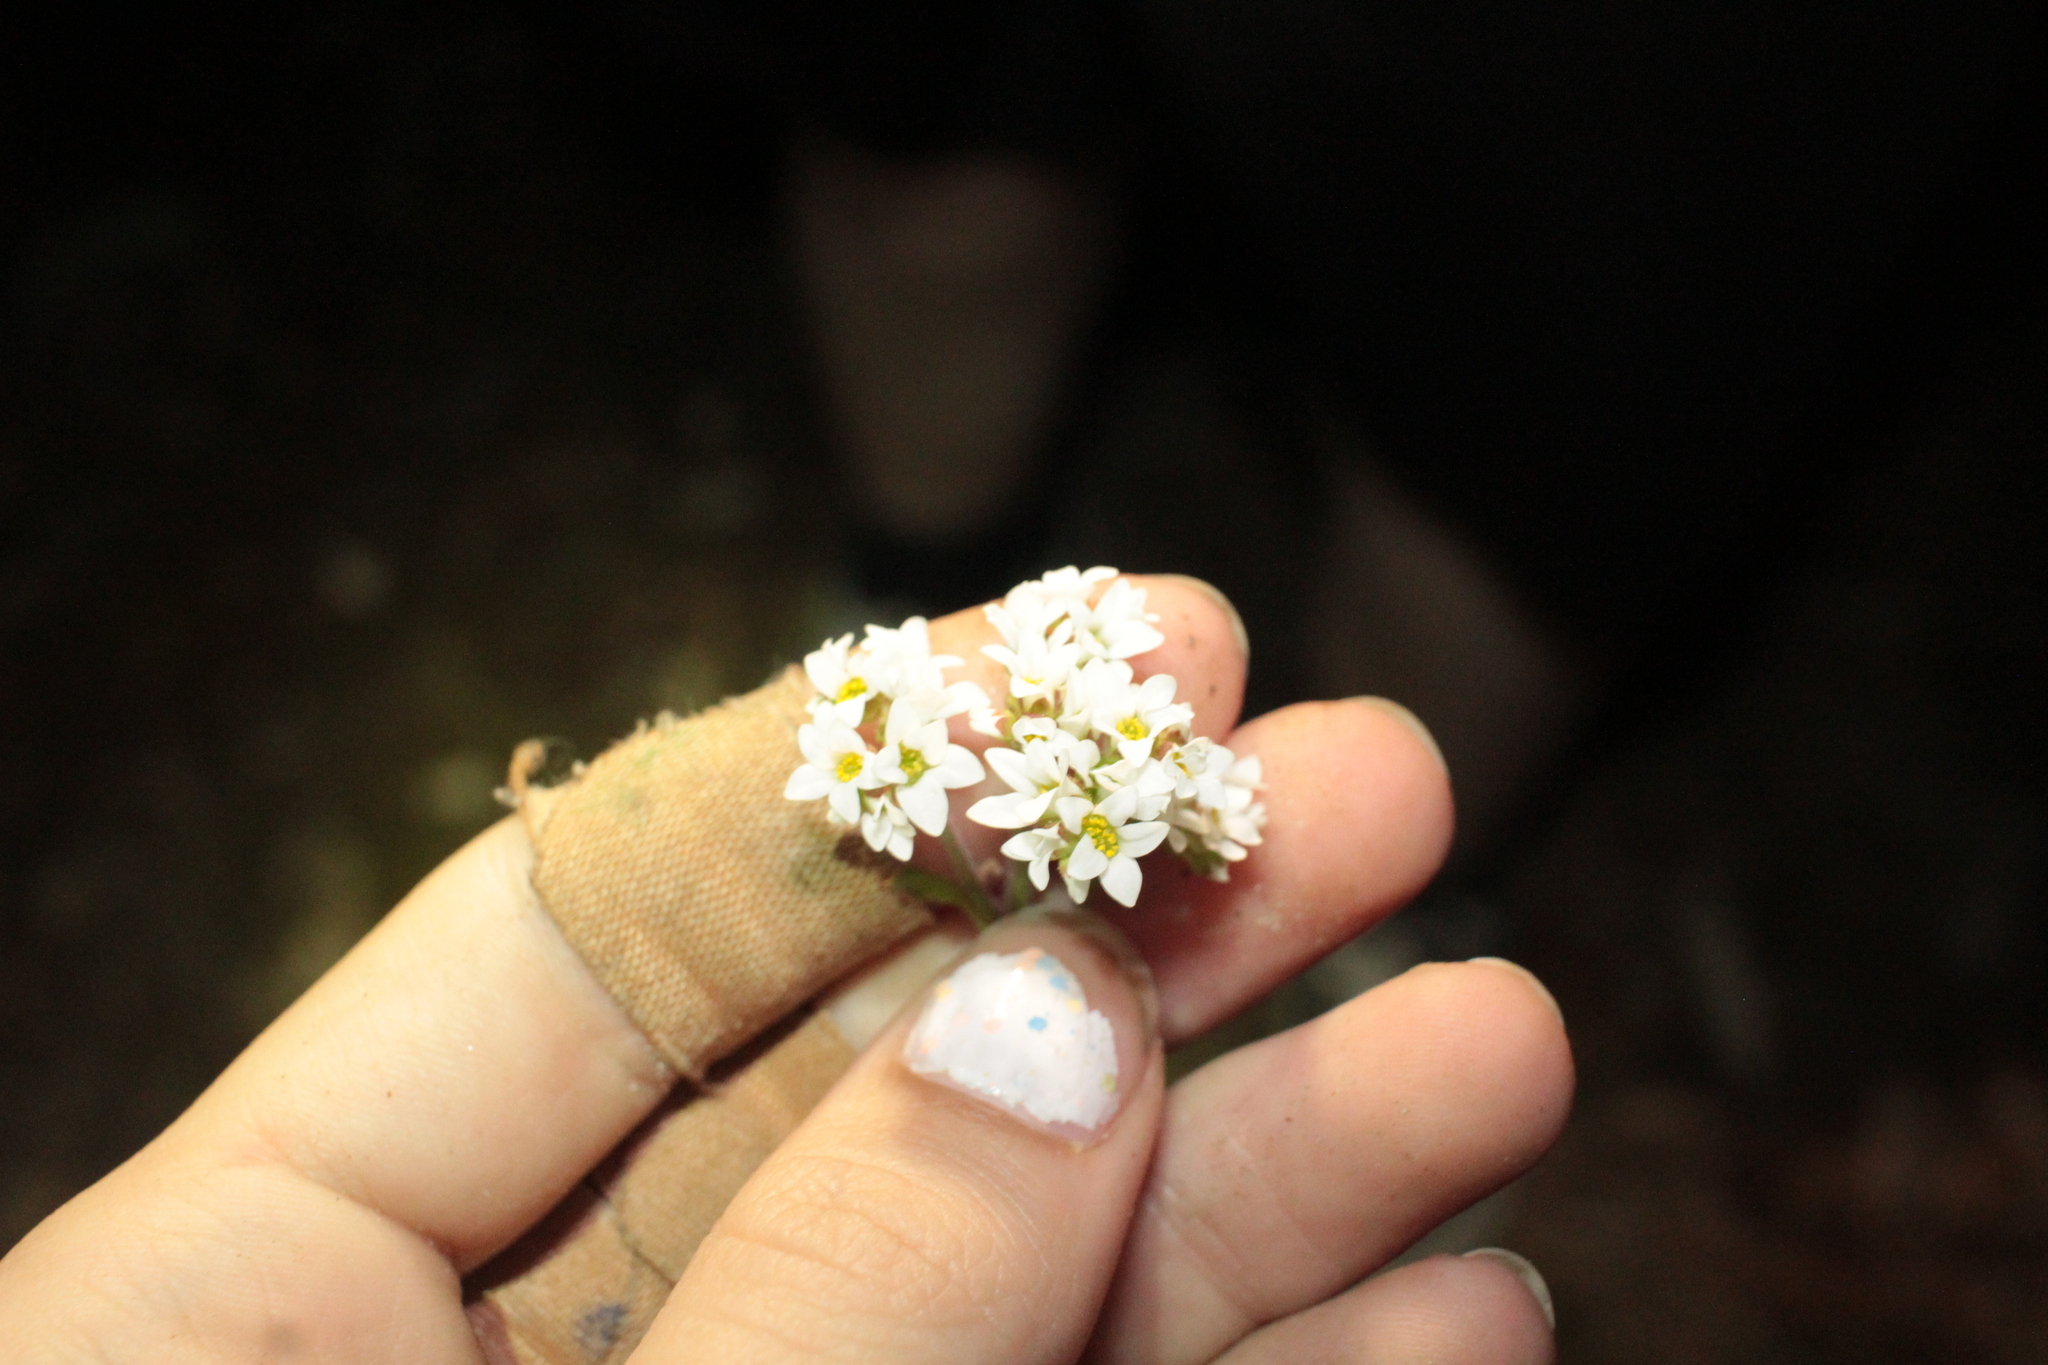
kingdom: Plantae
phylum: Tracheophyta
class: Magnoliopsida
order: Saxifragales
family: Saxifragaceae
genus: Micranthes
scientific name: Micranthes virginiensis
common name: Early saxifrage
